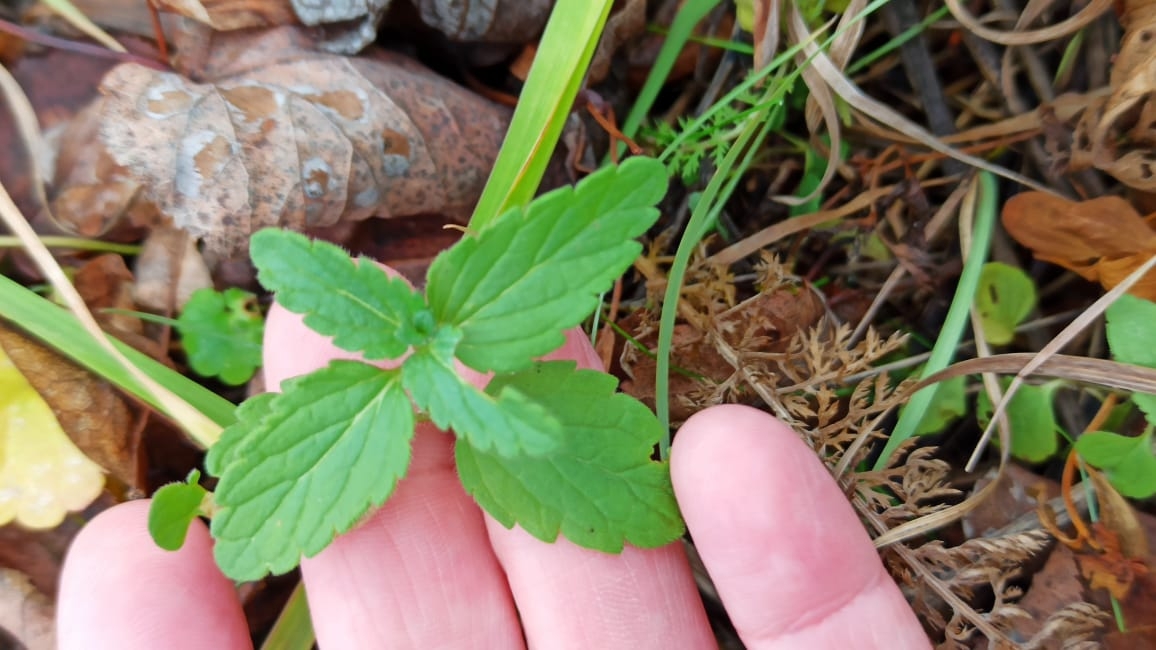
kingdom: Plantae
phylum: Tracheophyta
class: Magnoliopsida
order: Lamiales
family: Plantaginaceae
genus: Veronica
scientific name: Veronica chamaedrys
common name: Germander speedwell
